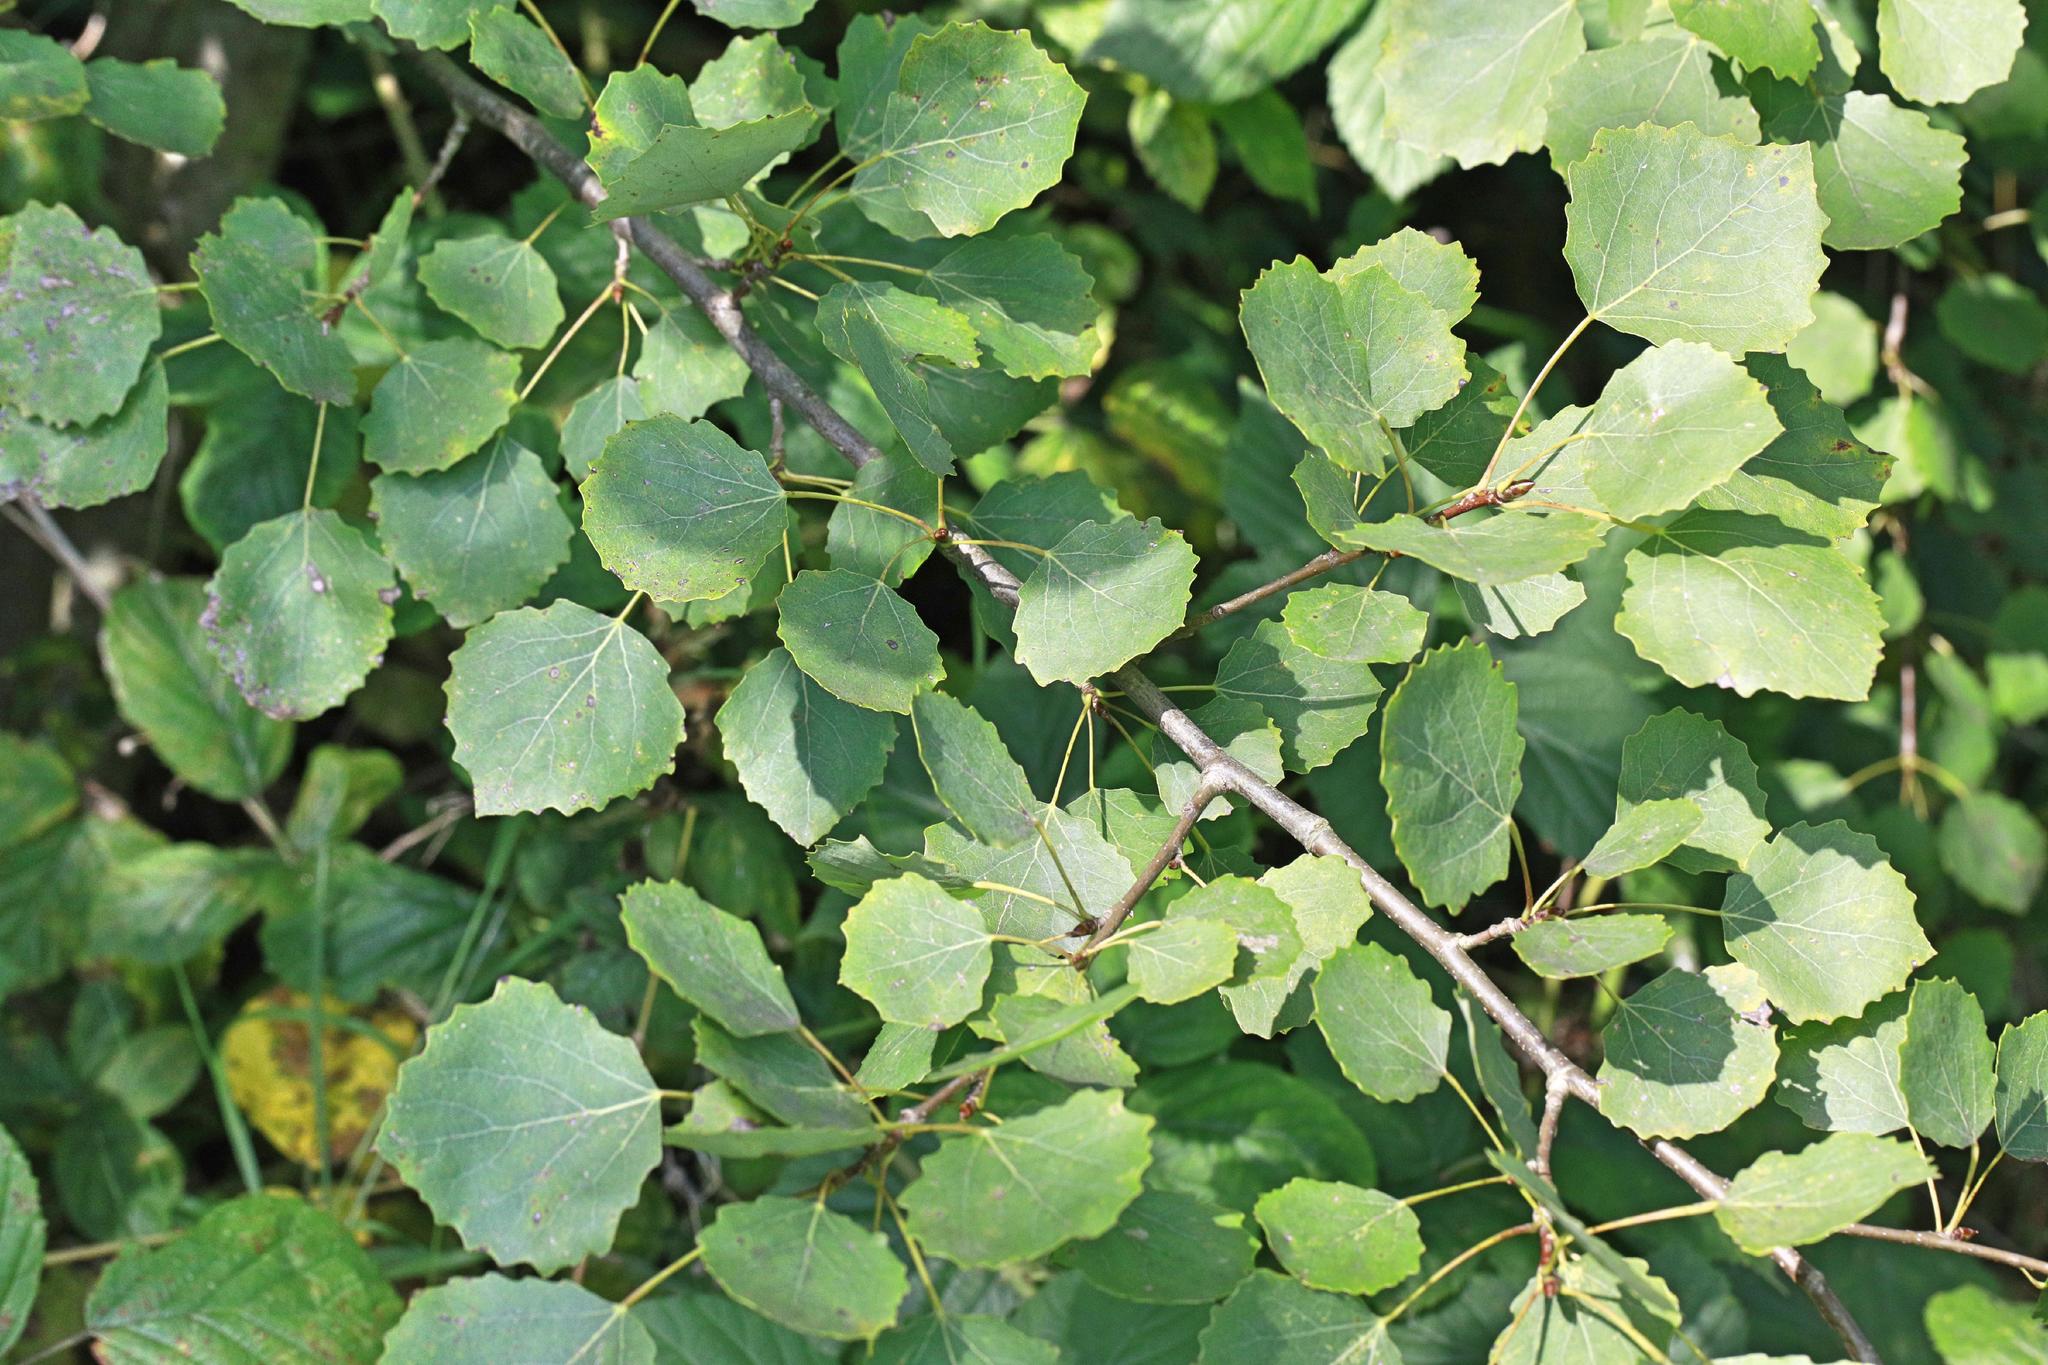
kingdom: Plantae
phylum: Tracheophyta
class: Magnoliopsida
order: Malpighiales
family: Salicaceae
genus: Populus
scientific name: Populus tremula
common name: European aspen
